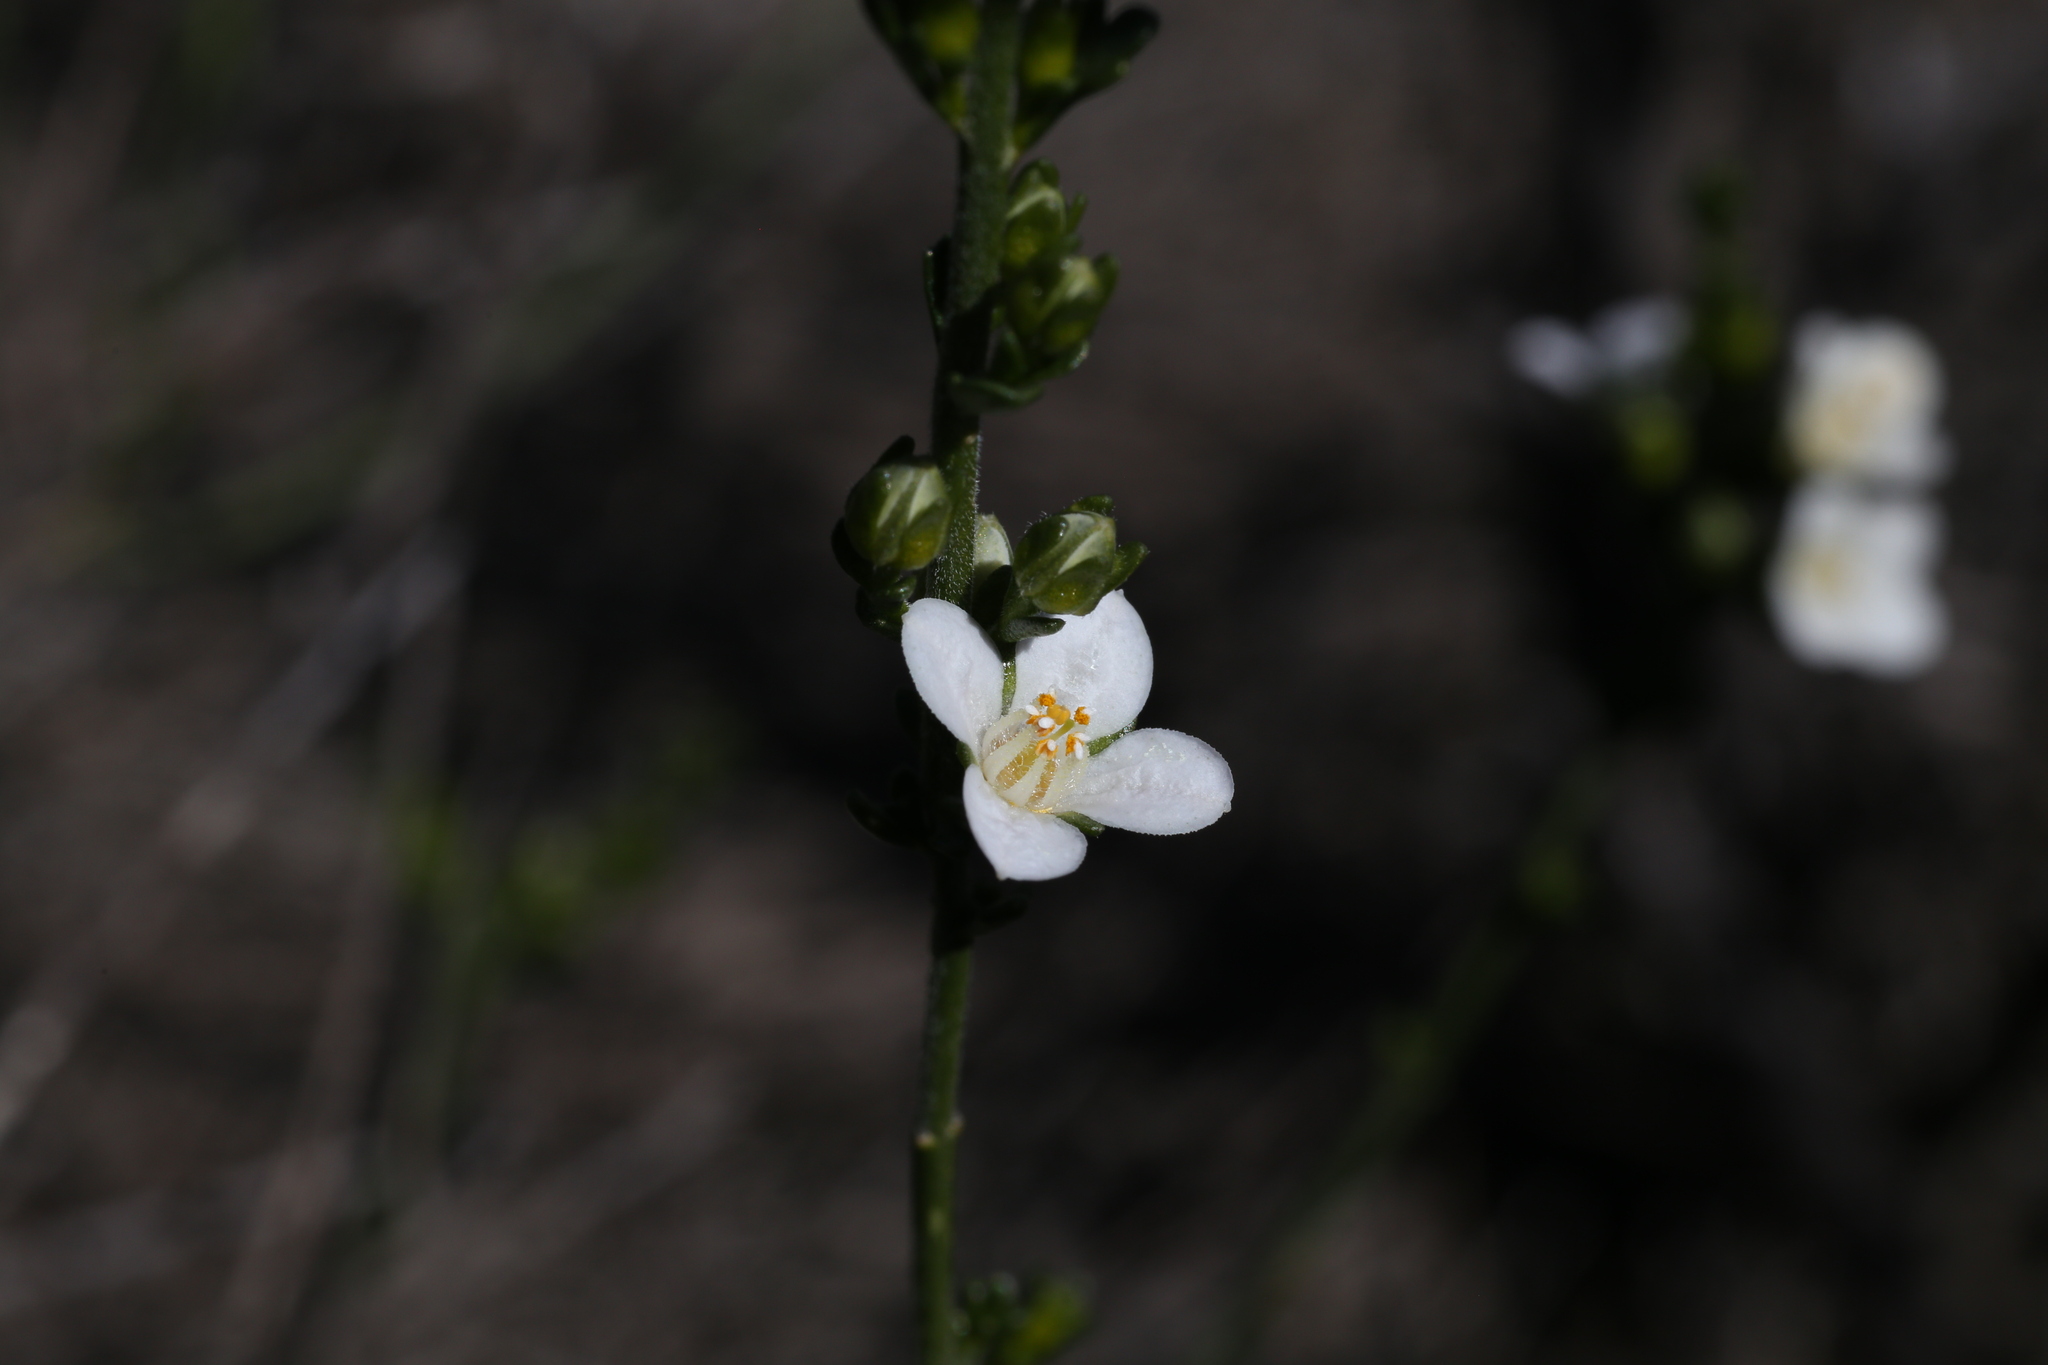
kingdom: Plantae
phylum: Tracheophyta
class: Magnoliopsida
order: Sapindales
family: Rutaceae
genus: Cyanothamnus
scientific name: Cyanothamnus coerulescens
